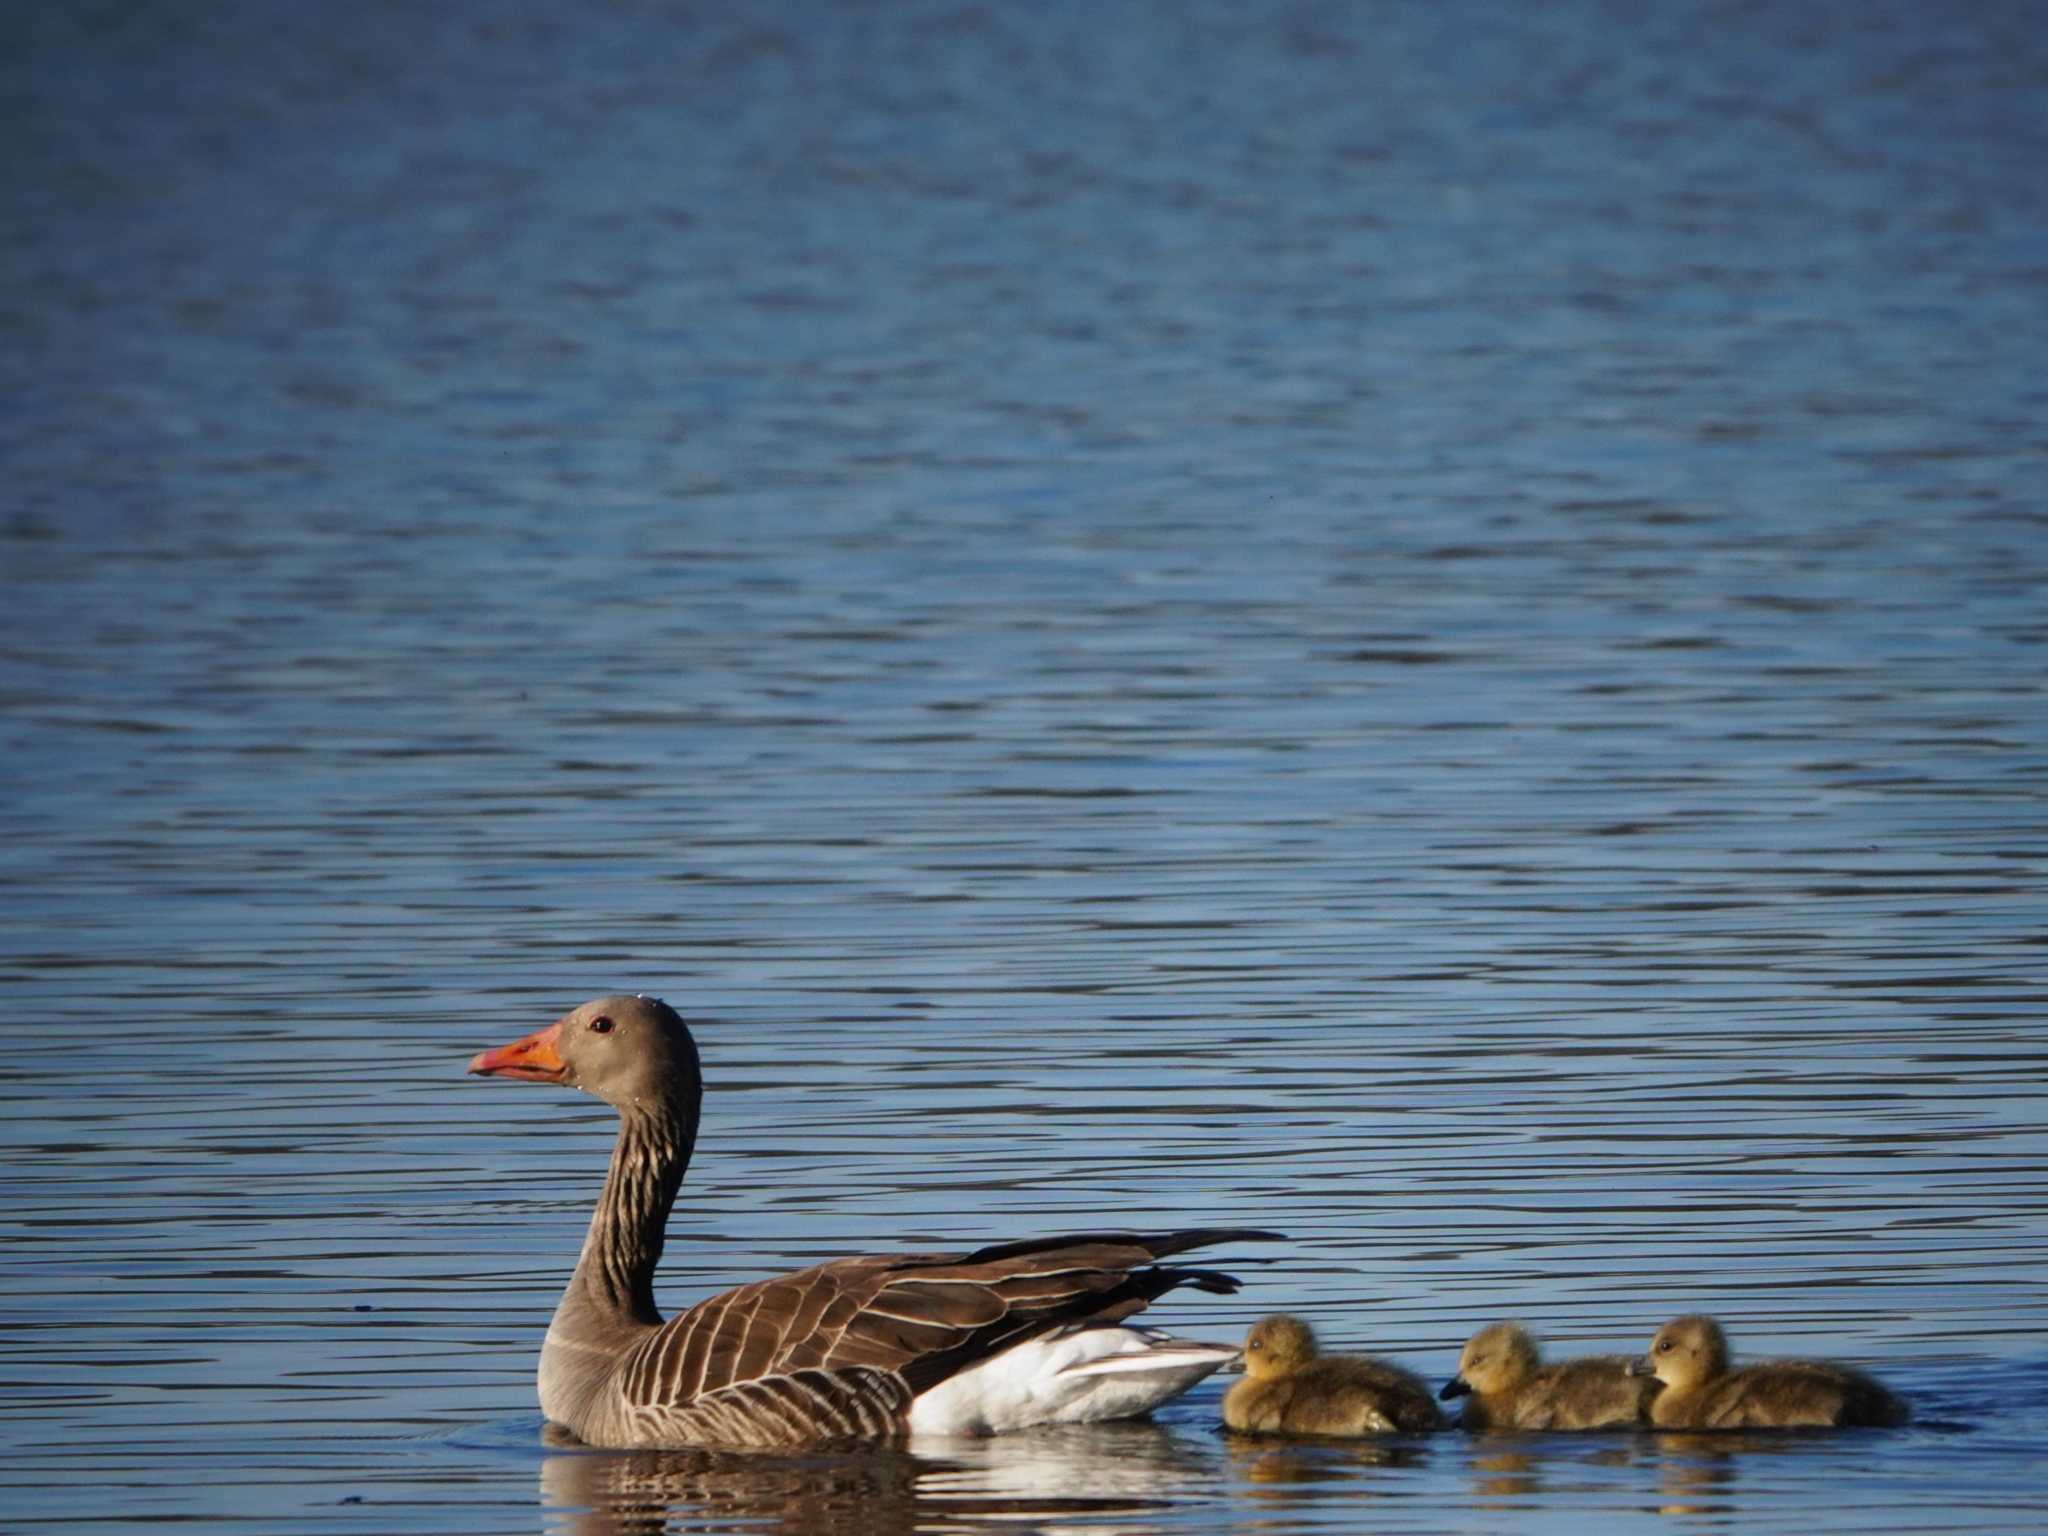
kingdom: Animalia
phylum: Chordata
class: Aves
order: Anseriformes
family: Anatidae
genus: Anser
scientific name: Anser anser
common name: Greylag goose
